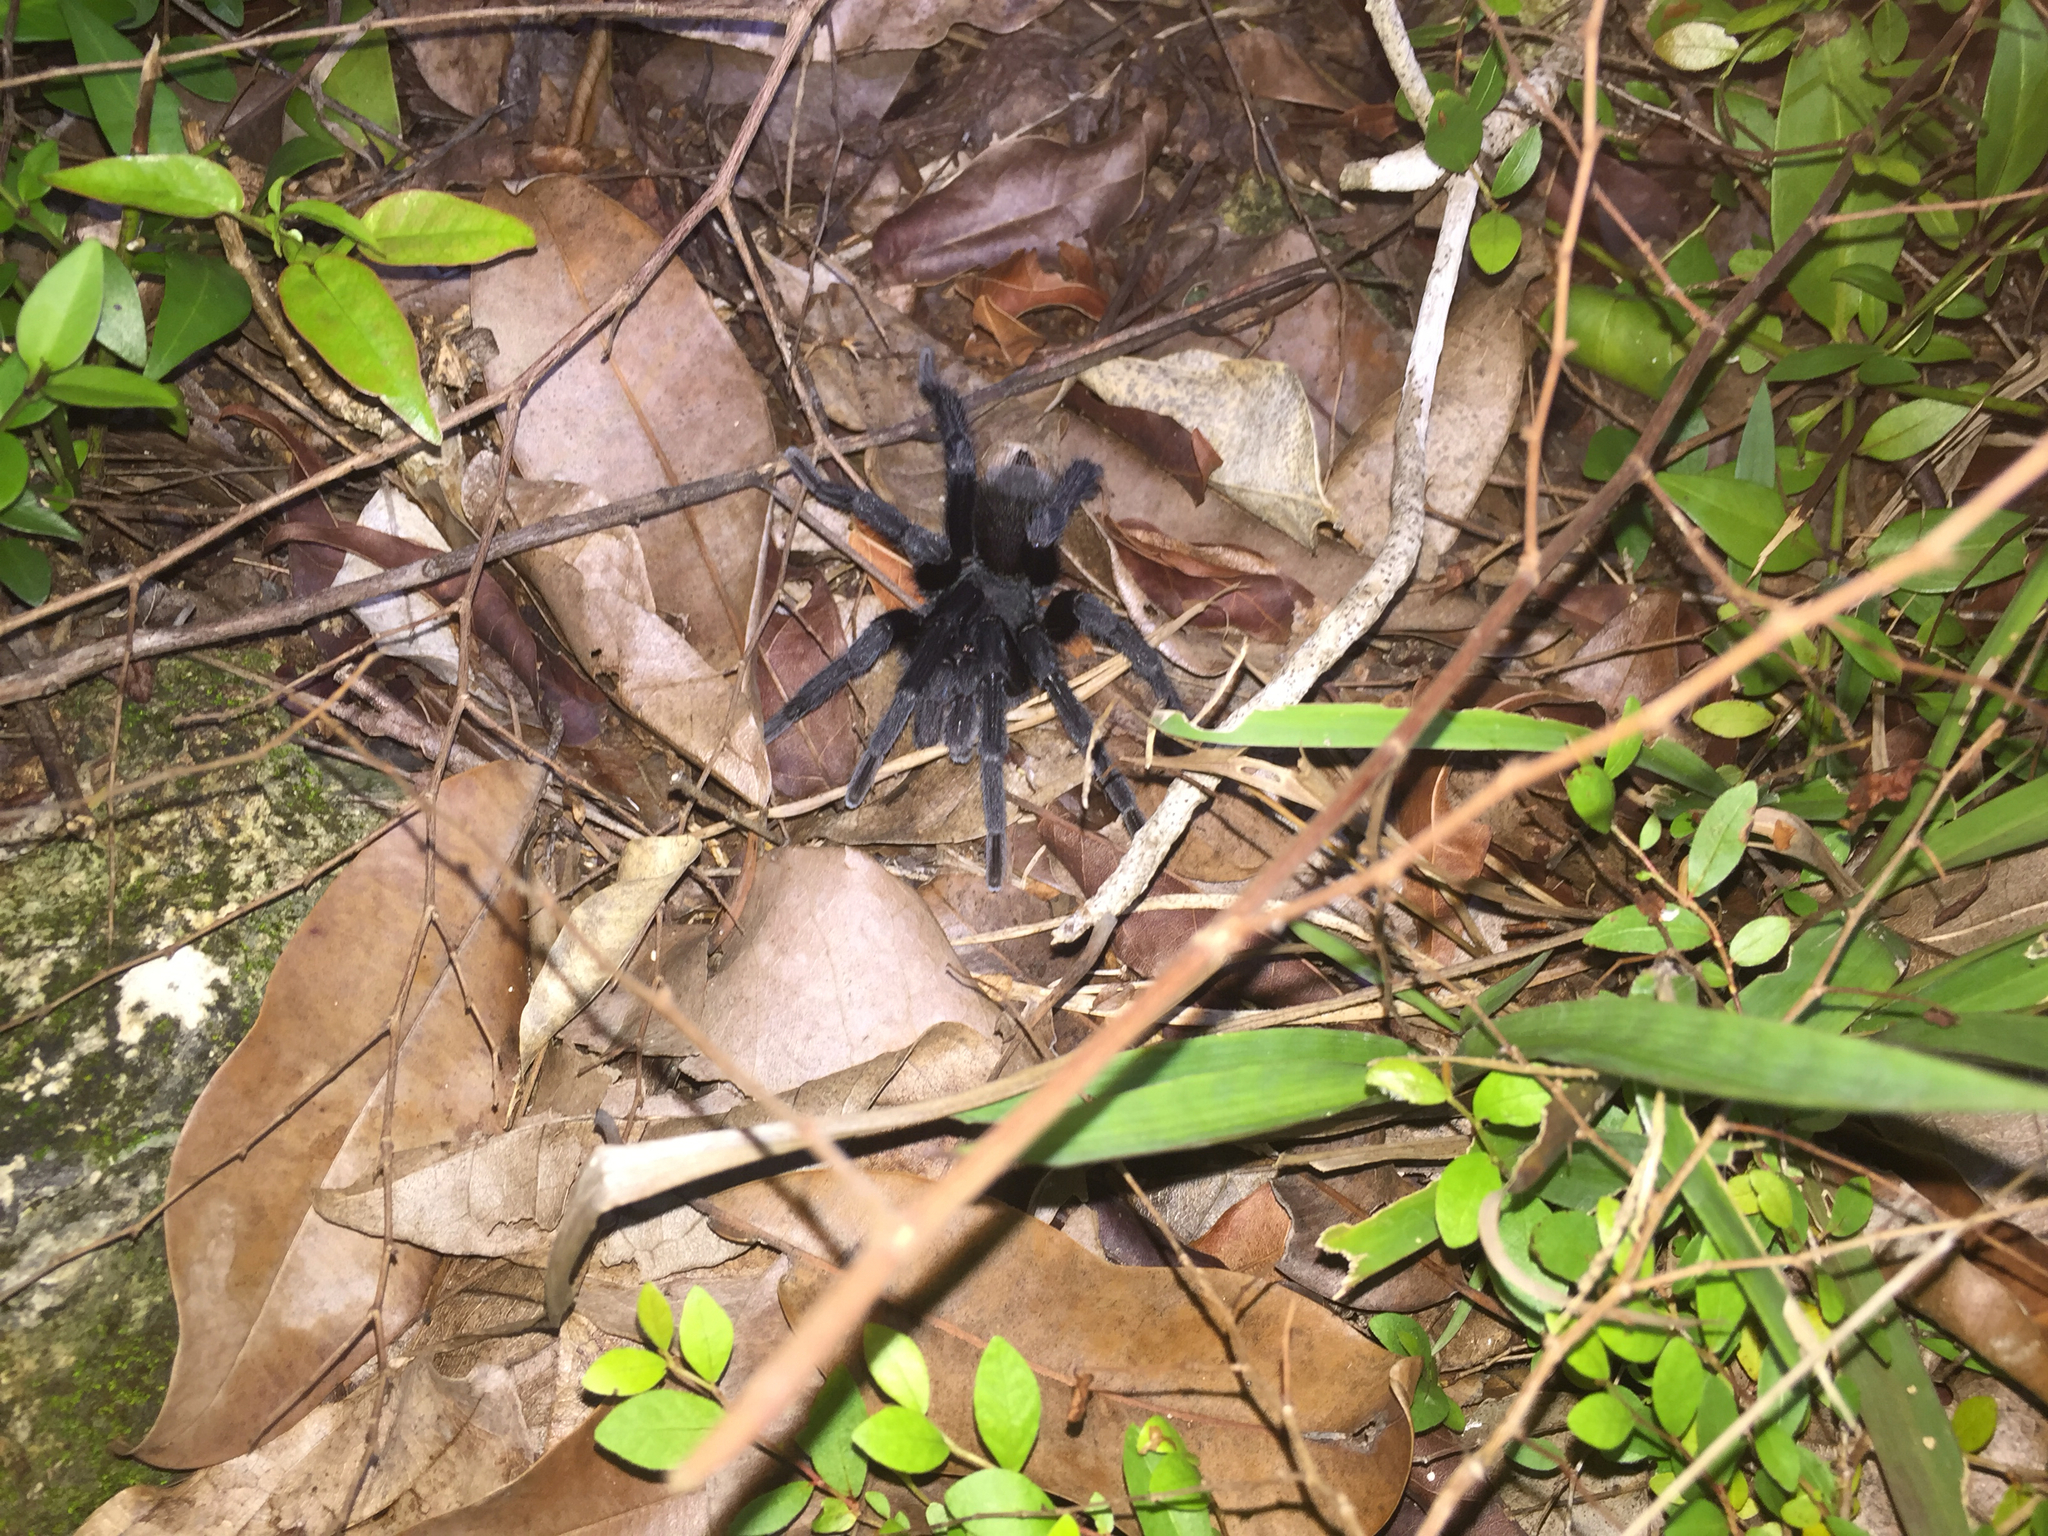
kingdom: Animalia
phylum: Arthropoda
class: Arachnida
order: Araneae
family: Theraphosidae
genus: Crassicrus
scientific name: Crassicrus yumkimil
